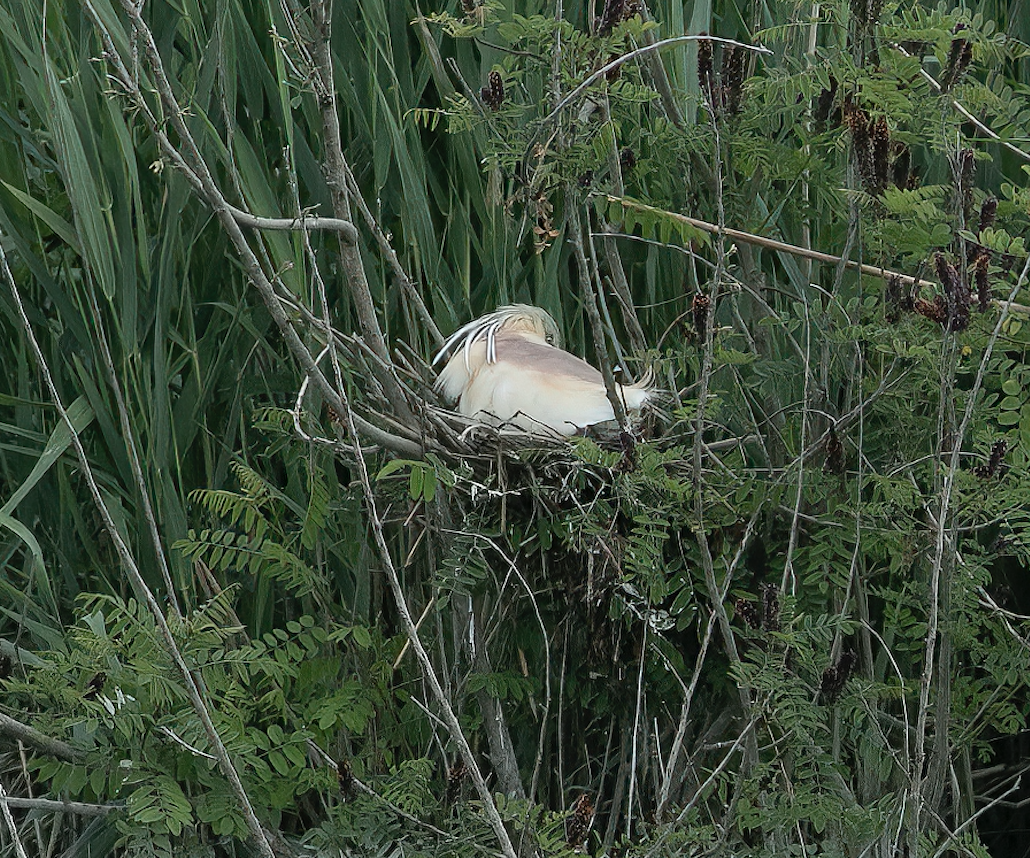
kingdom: Animalia
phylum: Chordata
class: Aves
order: Pelecaniformes
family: Ardeidae
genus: Ardeola
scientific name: Ardeola ralloides
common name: Squacco heron
